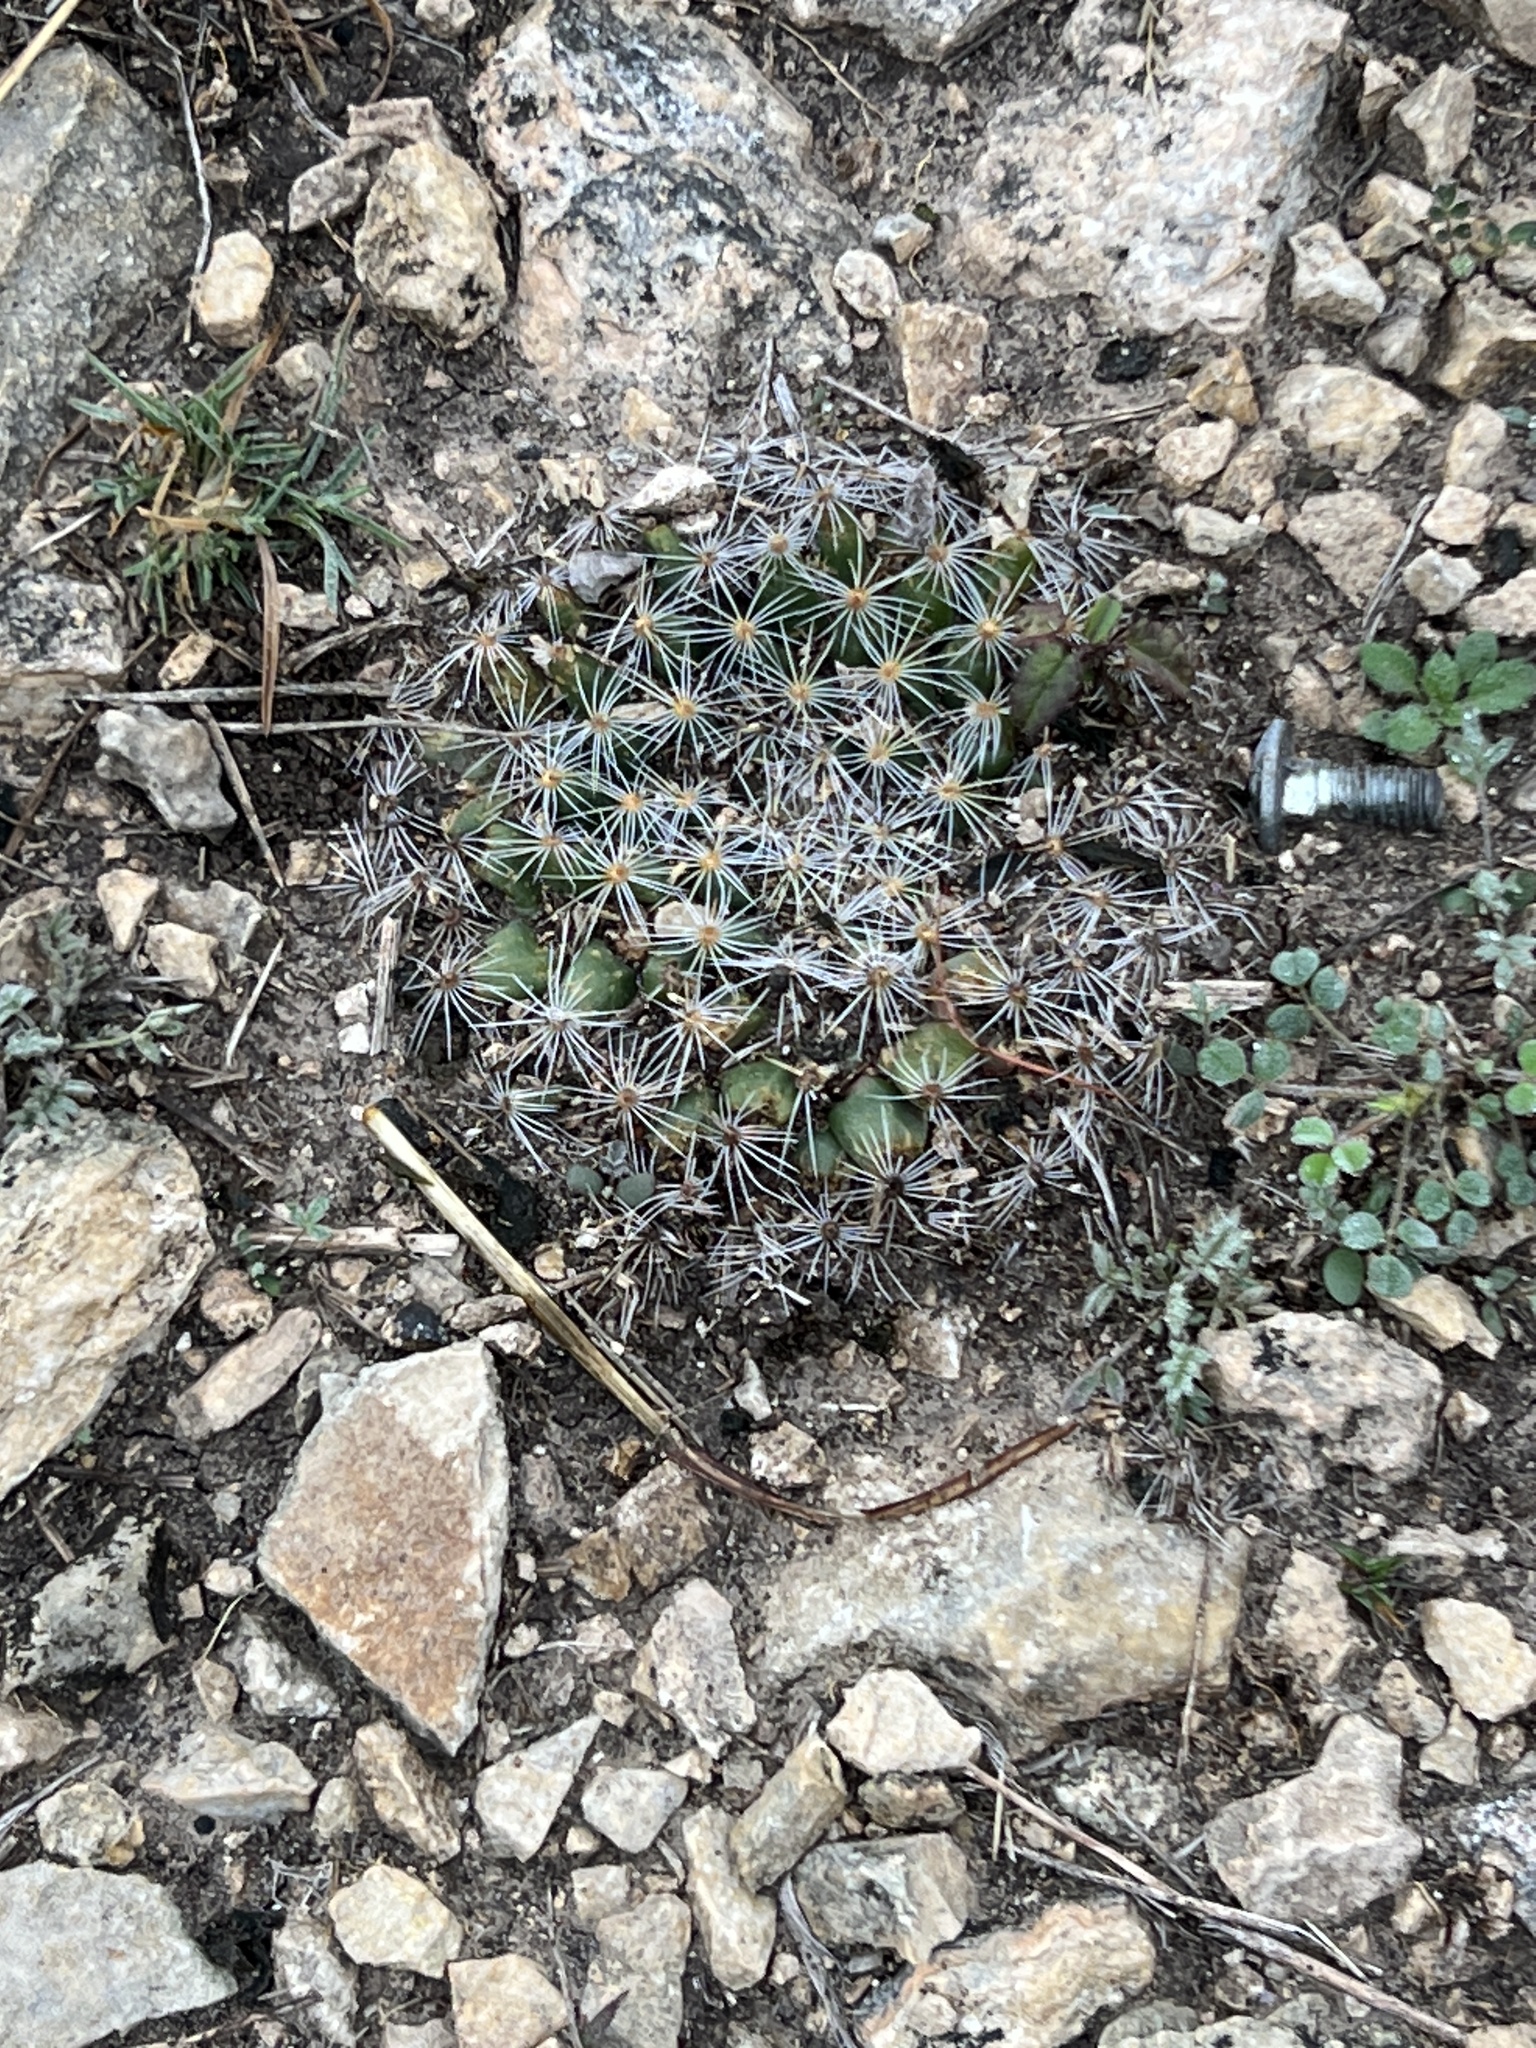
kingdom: Plantae
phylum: Tracheophyta
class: Magnoliopsida
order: Caryophyllales
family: Cactaceae
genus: Mammillaria
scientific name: Mammillaria heyderi
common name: Little nipple cactus
